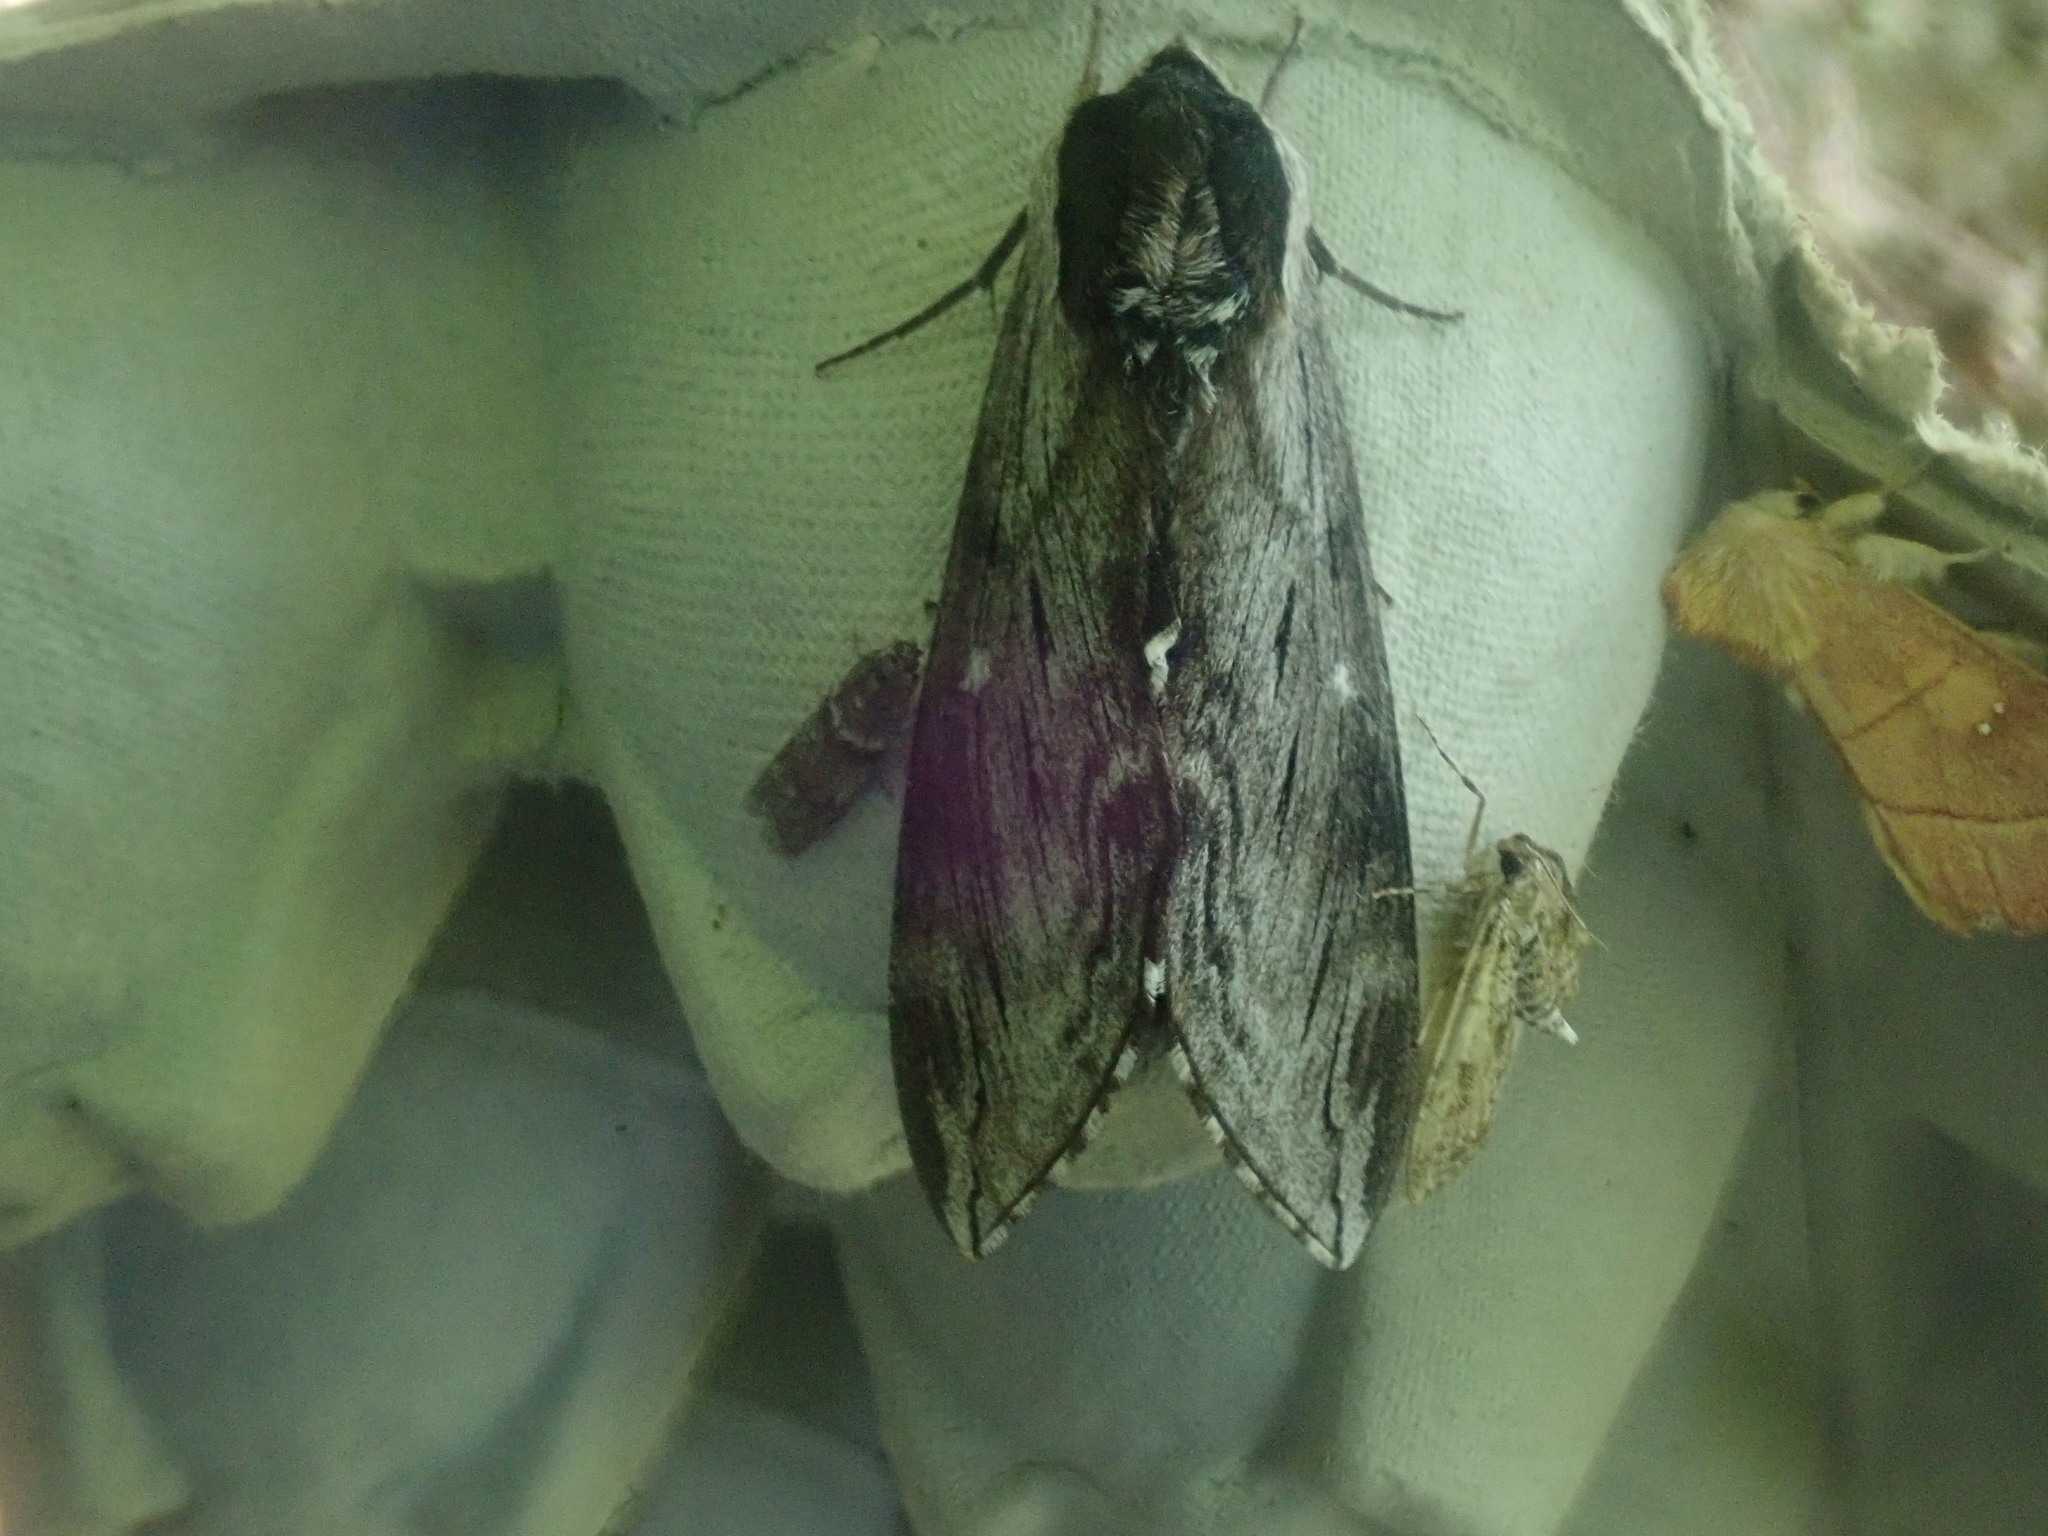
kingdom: Animalia
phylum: Arthropoda
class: Insecta
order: Lepidoptera
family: Sphingidae
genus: Sphinx
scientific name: Sphinx
